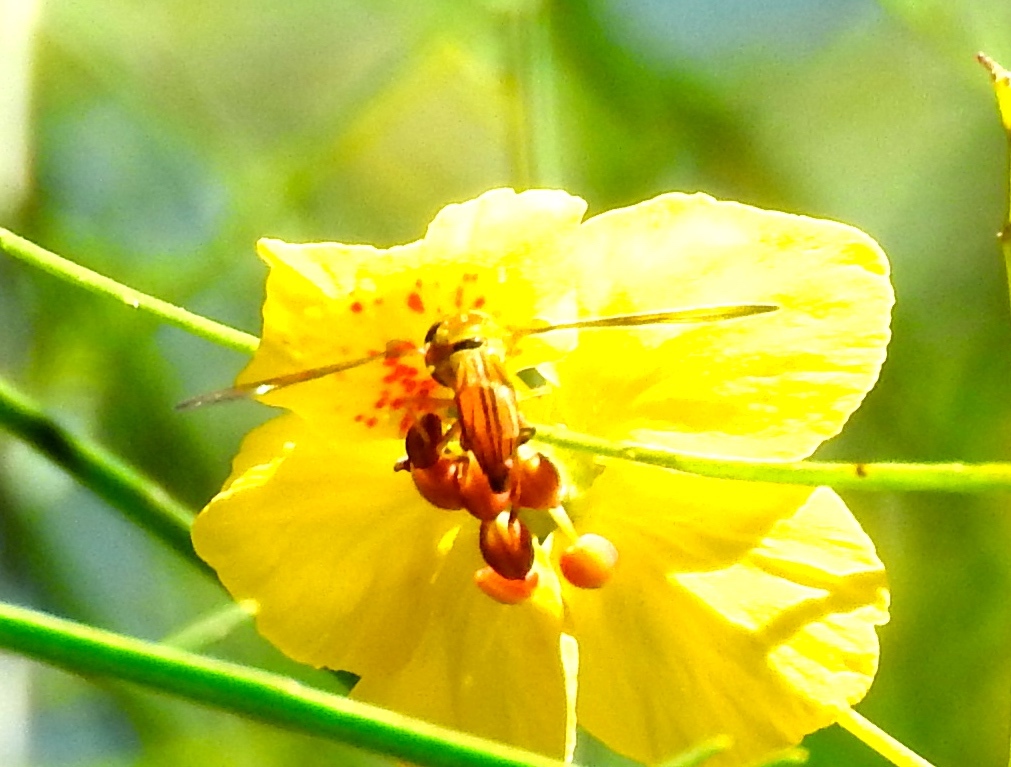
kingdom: Animalia
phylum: Arthropoda
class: Insecta
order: Diptera
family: Syrphidae
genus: Hybobathus
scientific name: Hybobathus
